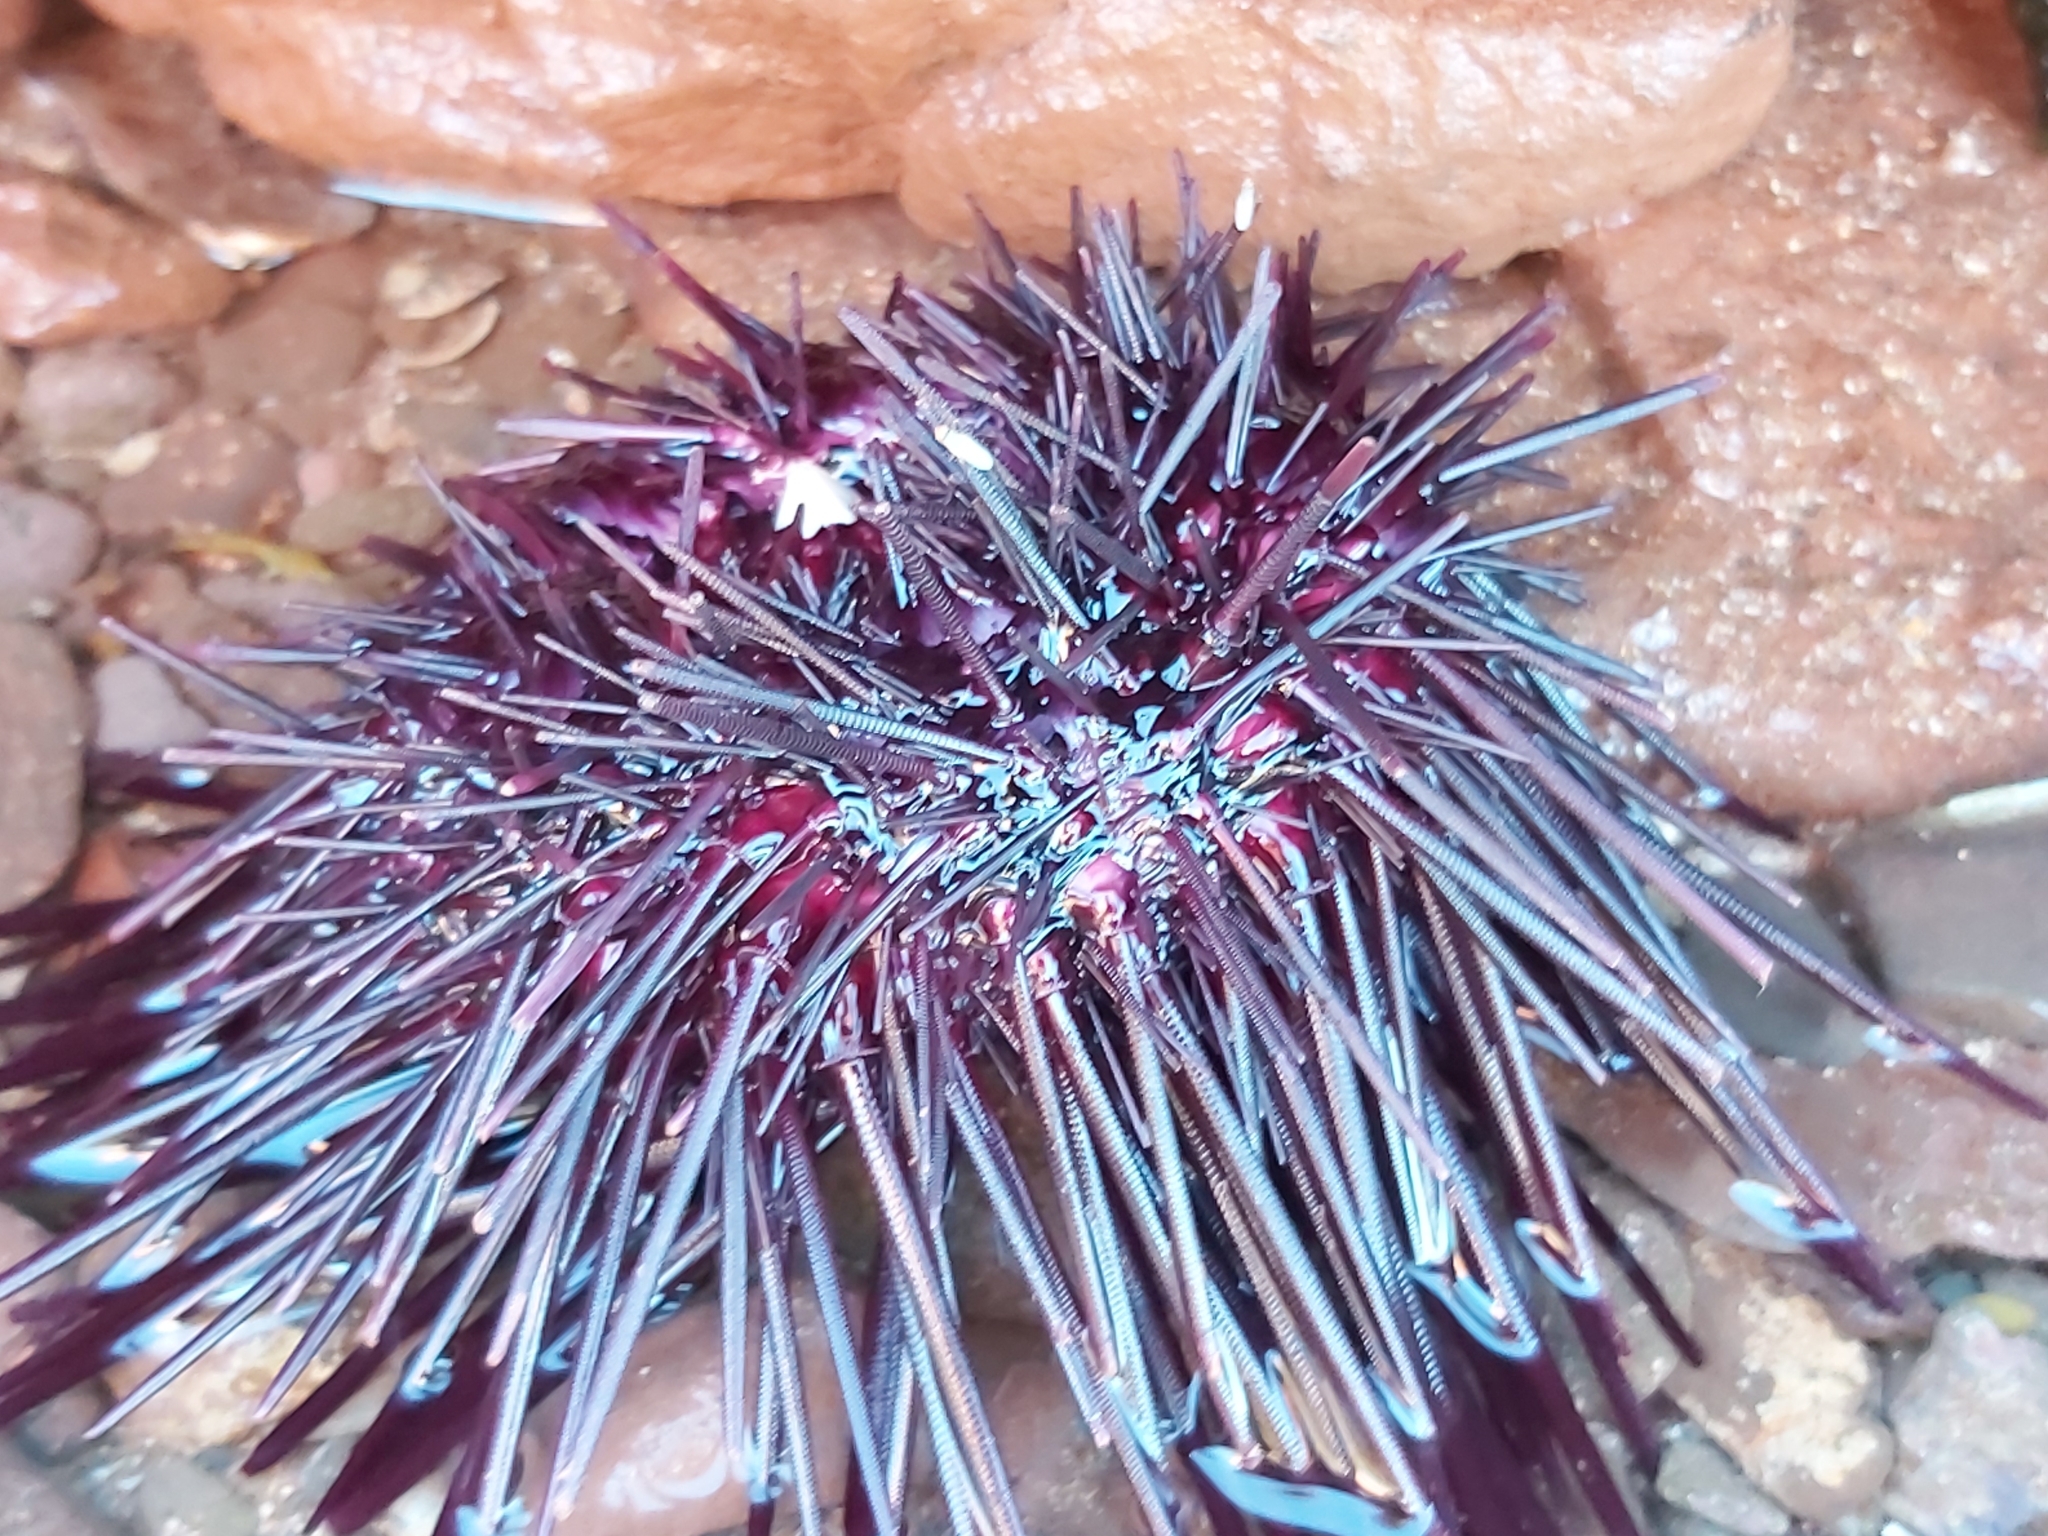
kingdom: Animalia
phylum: Echinodermata
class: Echinoidea
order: Diadematoida
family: Diadematidae
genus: Centrostephanus
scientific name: Centrostephanus rodgersii
